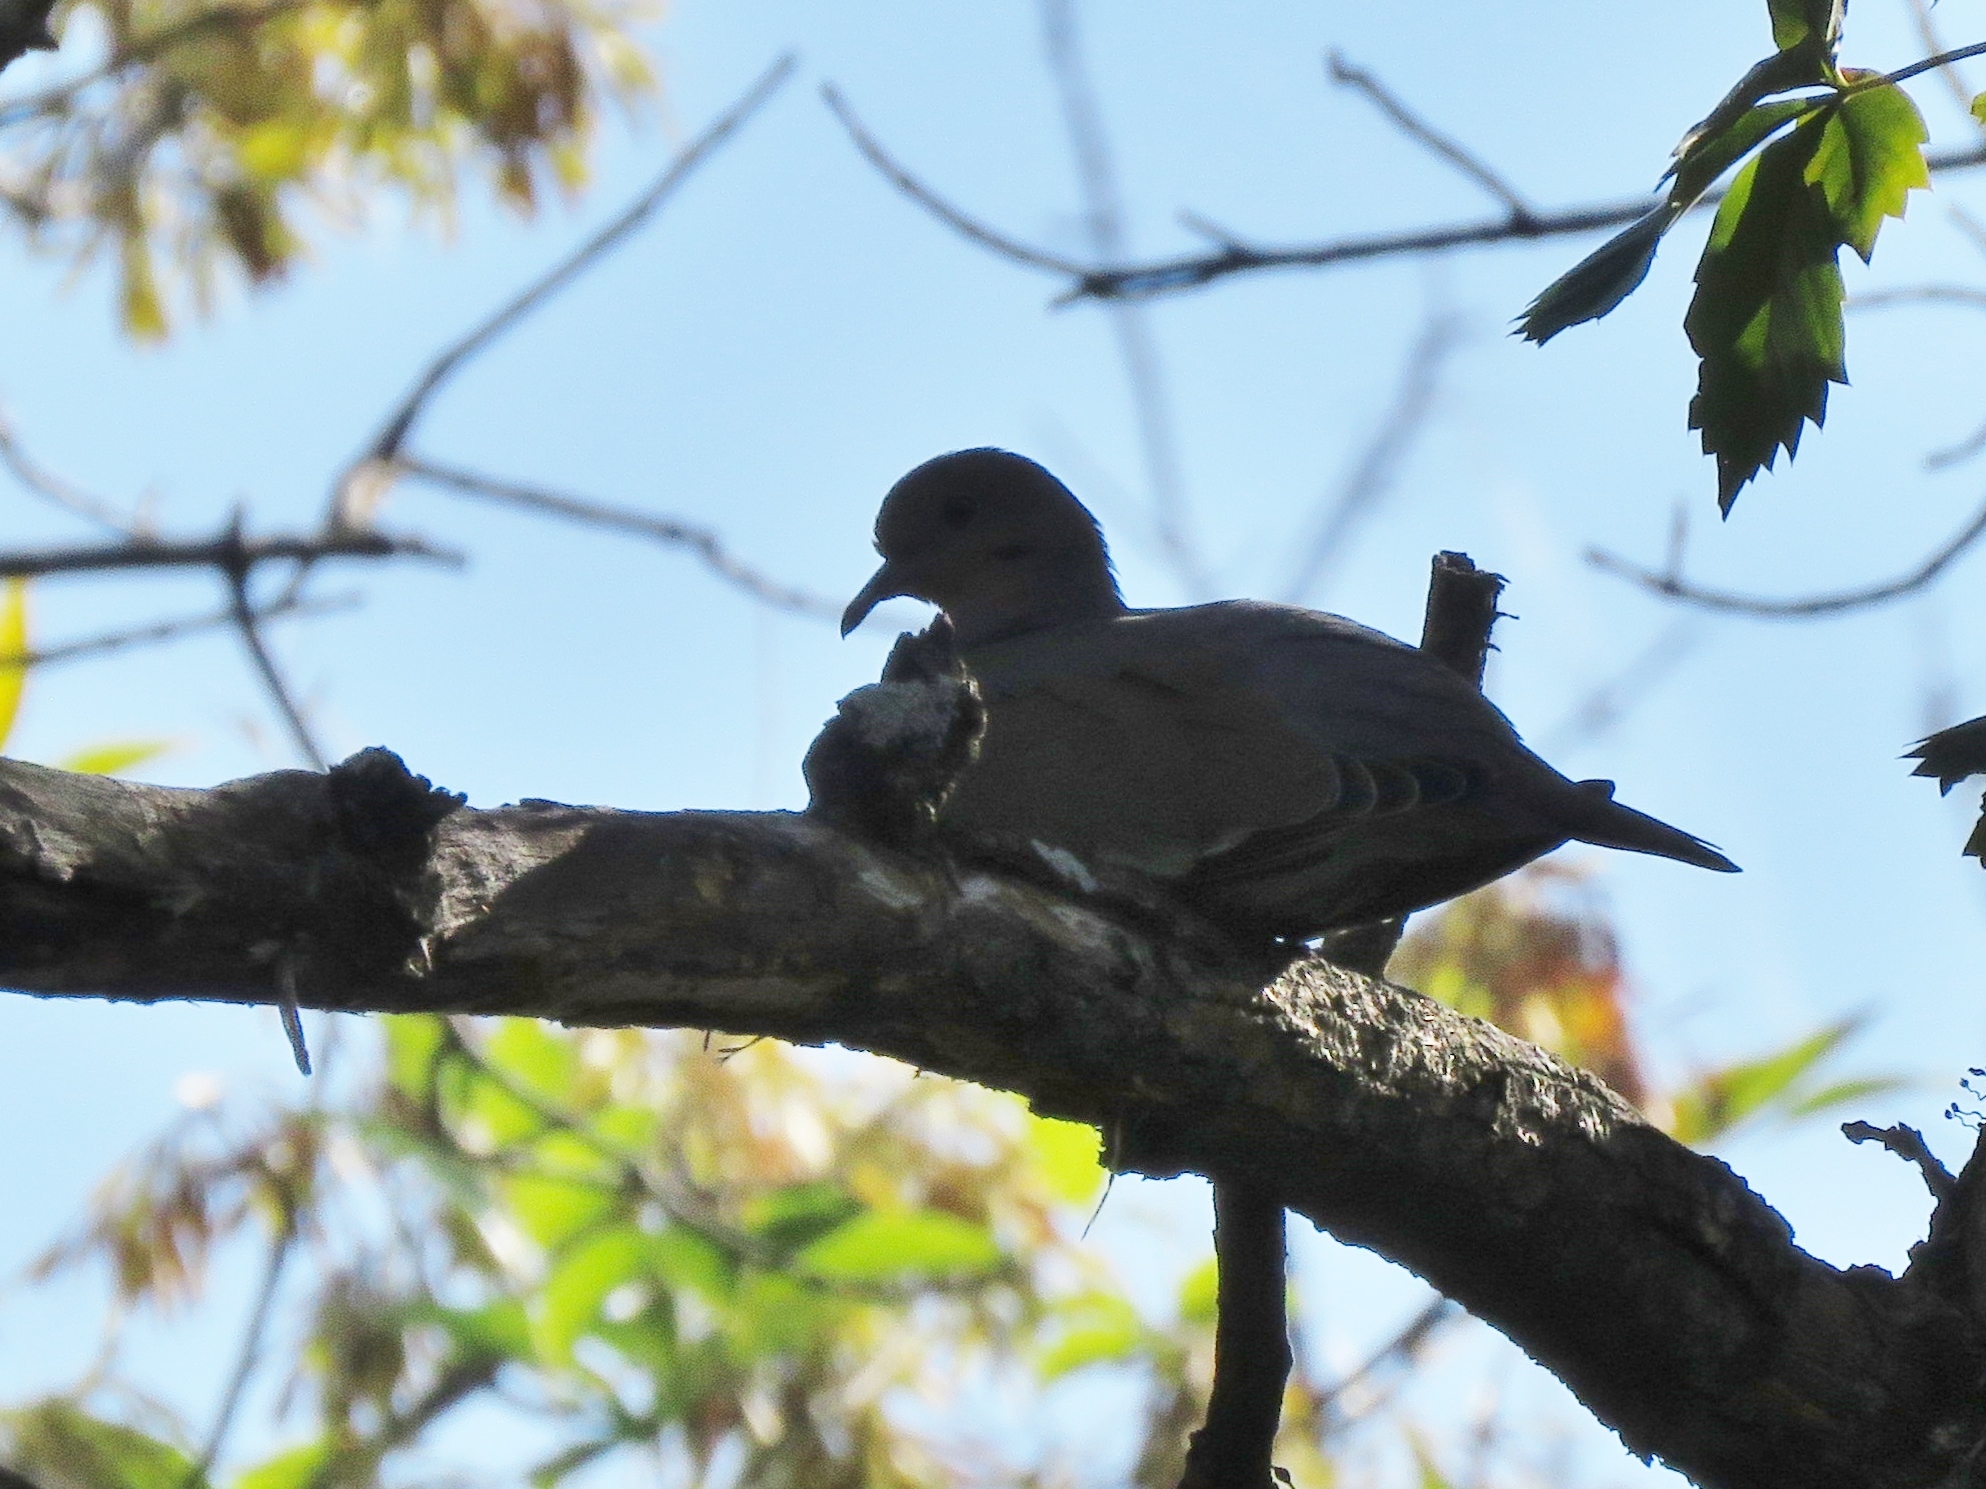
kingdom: Animalia
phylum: Chordata
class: Aves
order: Columbiformes
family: Columbidae
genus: Zenaida
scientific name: Zenaida asiatica
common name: White-winged dove
